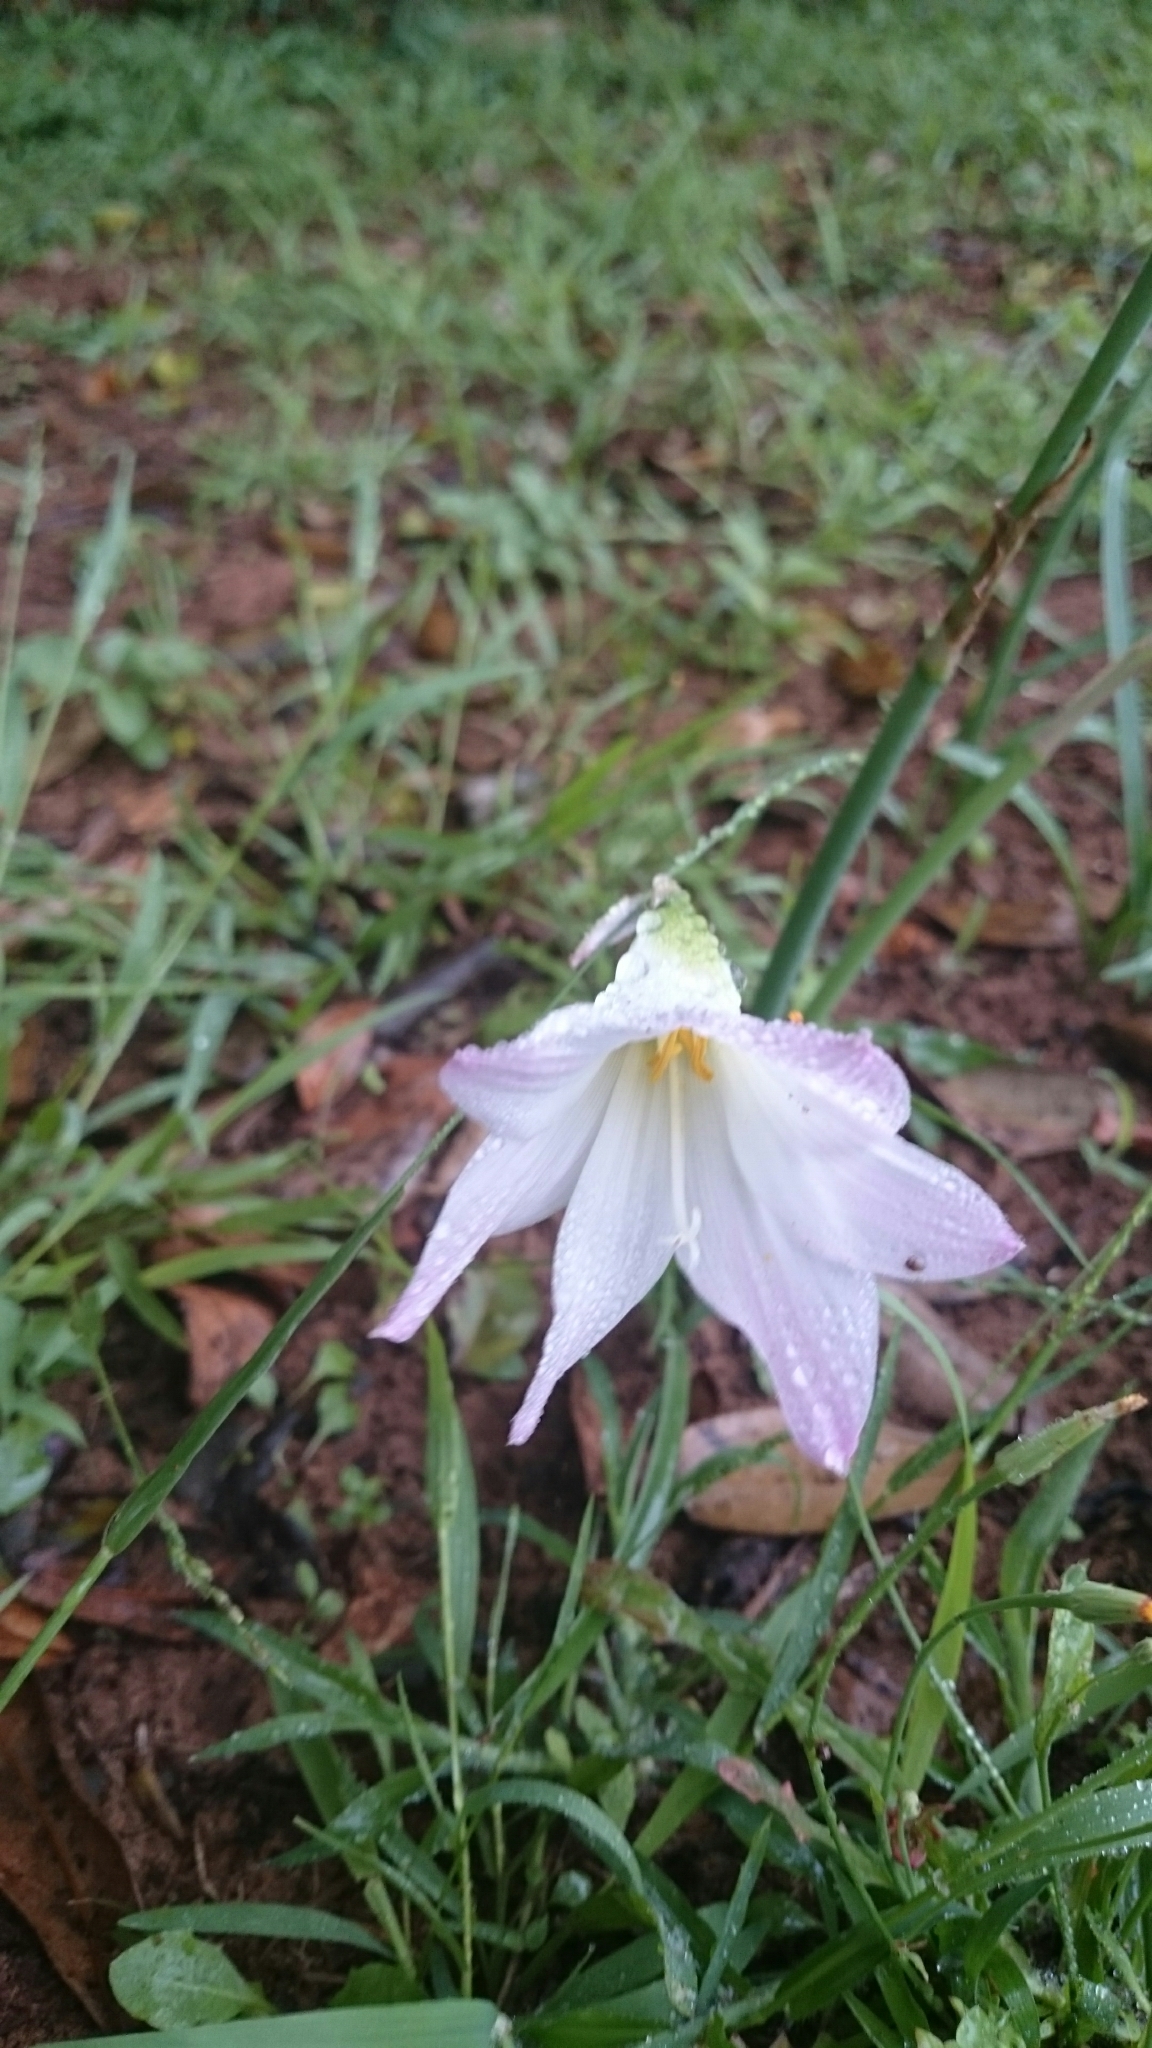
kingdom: Plantae
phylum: Tracheophyta
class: Liliopsida
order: Asparagales
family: Amaryllidaceae
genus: Zephyranthes
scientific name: Zephyranthes robusta
